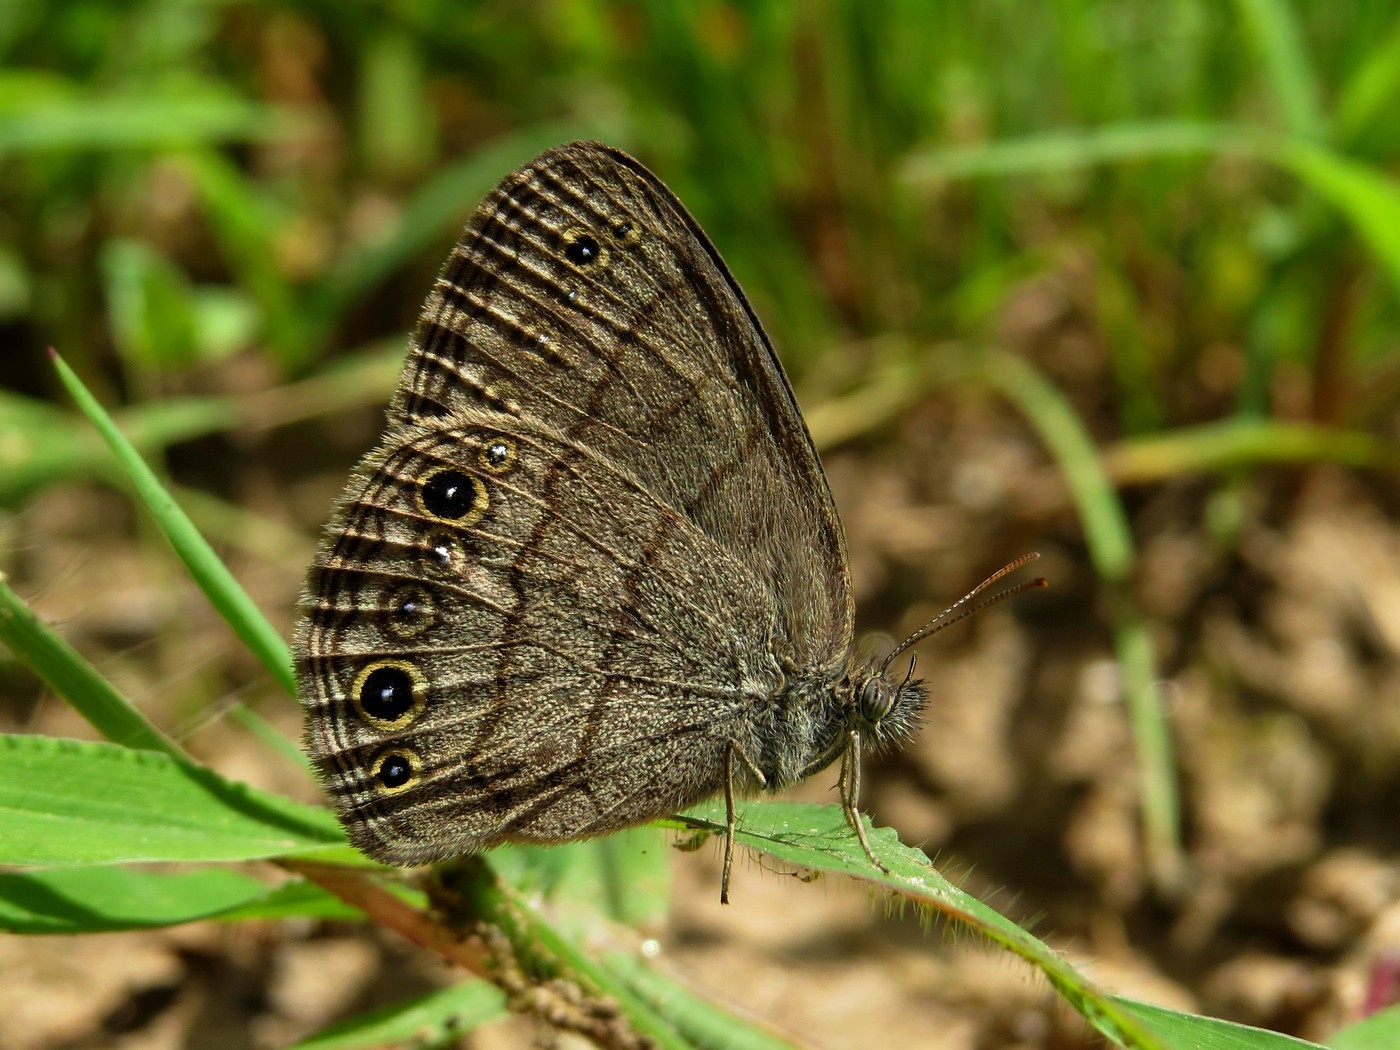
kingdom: Animalia
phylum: Arthropoda
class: Insecta
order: Lepidoptera
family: Nymphalidae
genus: Hermeuptychia
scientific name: Hermeuptychia hermes
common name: Hermes satyr
